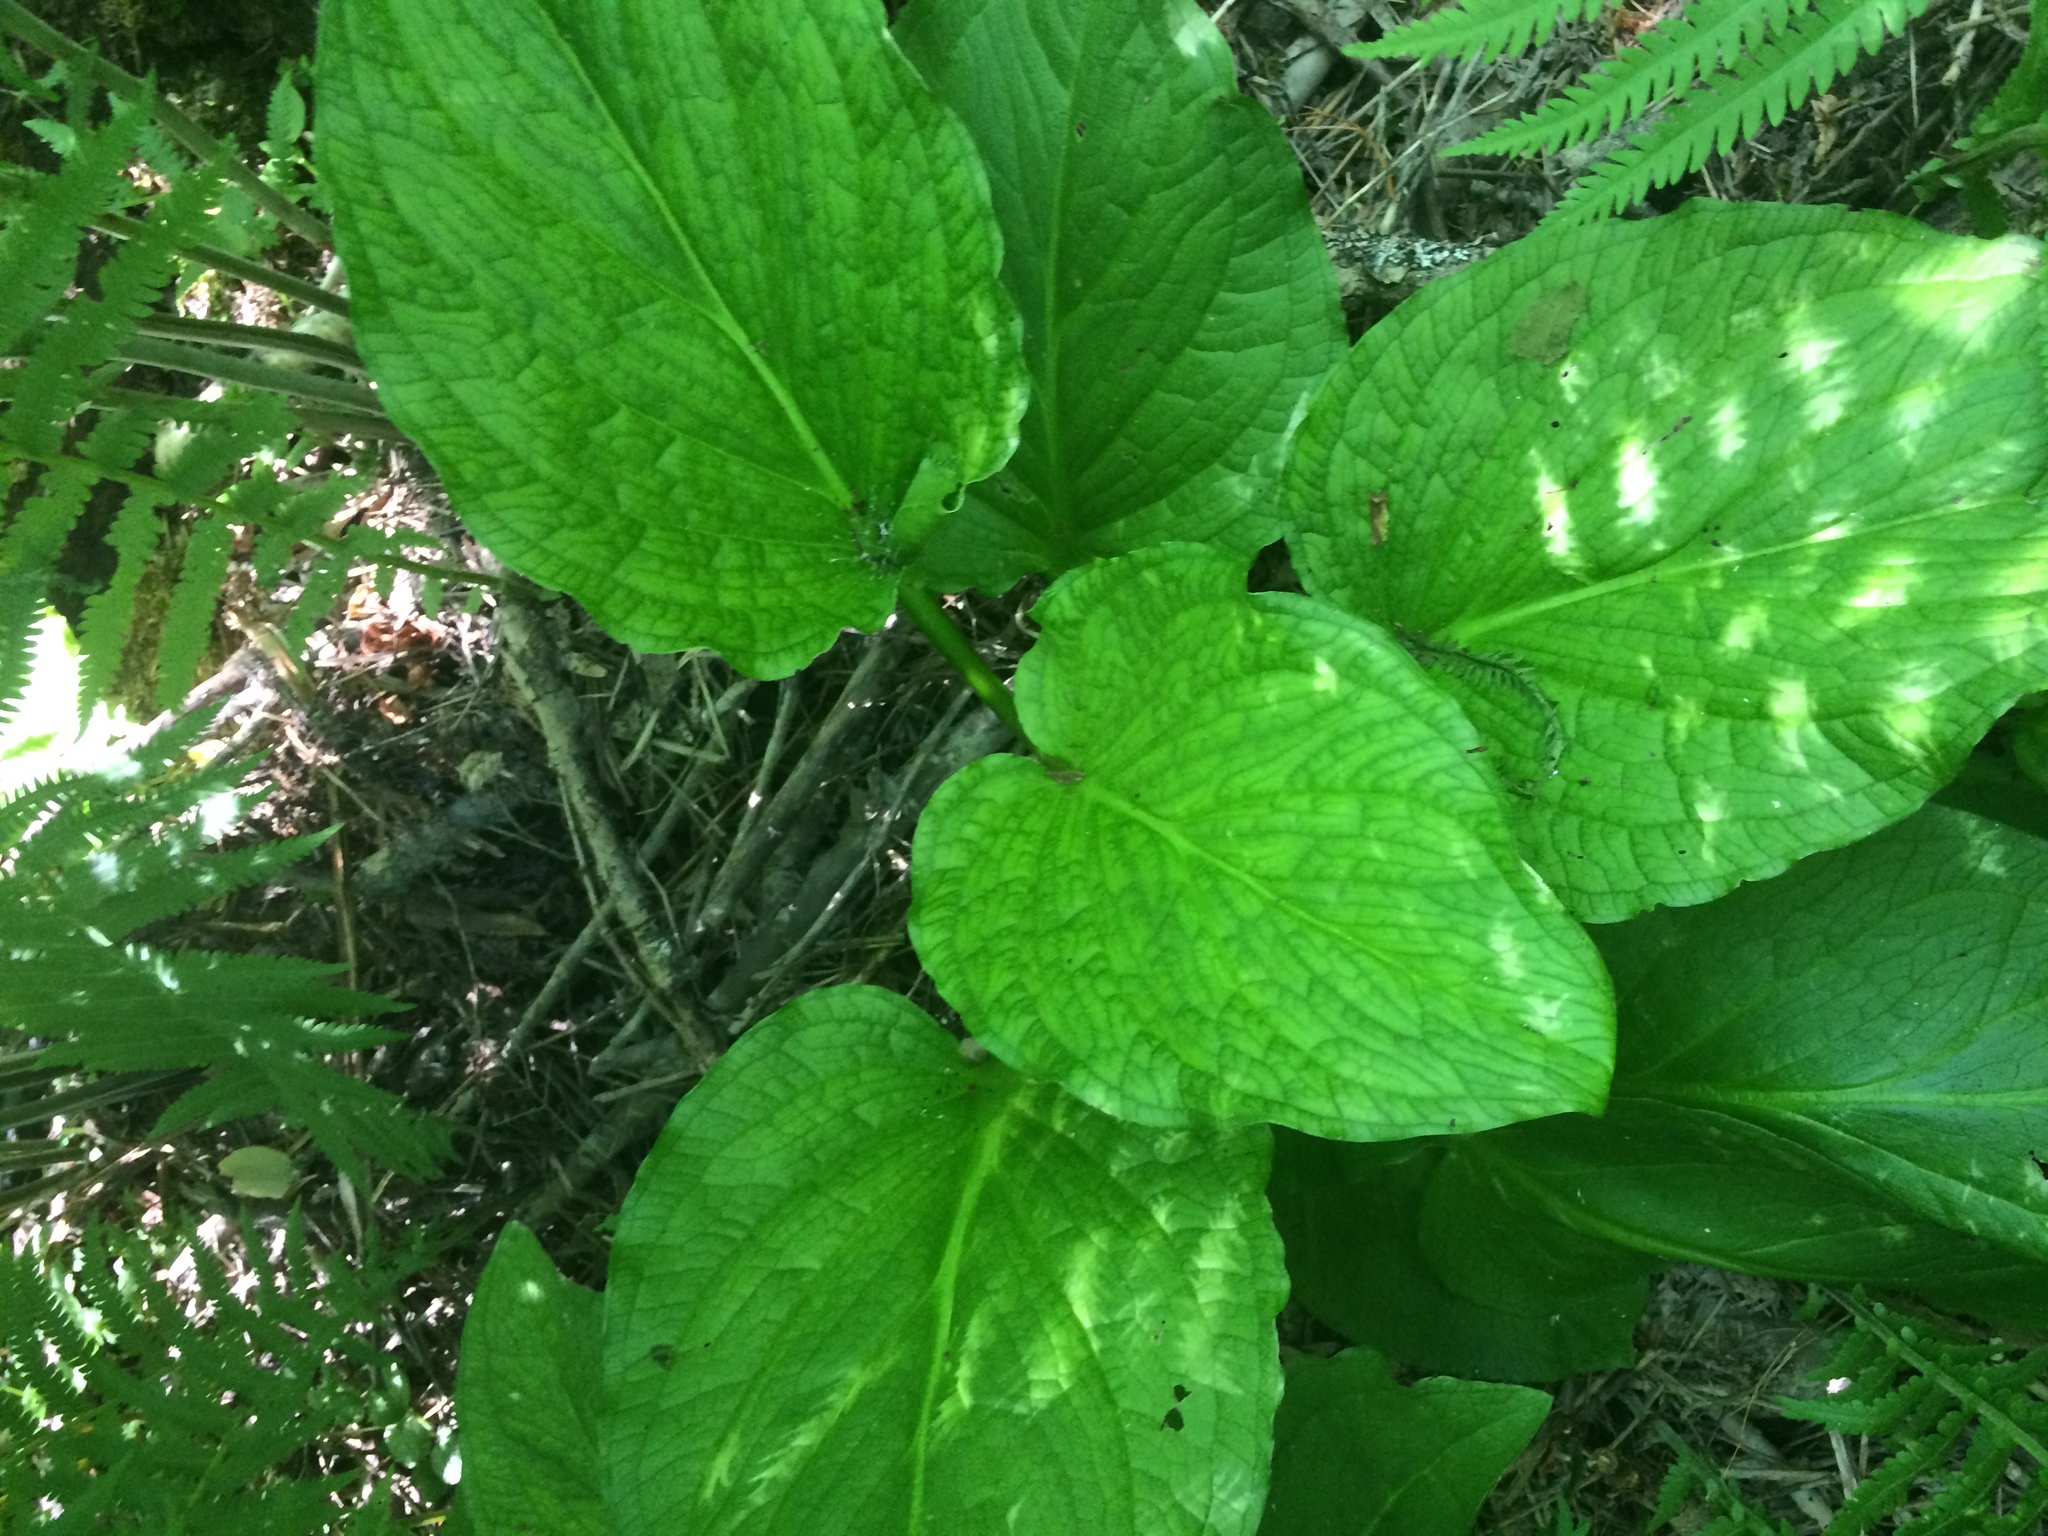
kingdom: Plantae
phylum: Tracheophyta
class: Liliopsida
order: Alismatales
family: Araceae
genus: Symplocarpus
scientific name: Symplocarpus foetidus
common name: Eastern skunk cabbage
